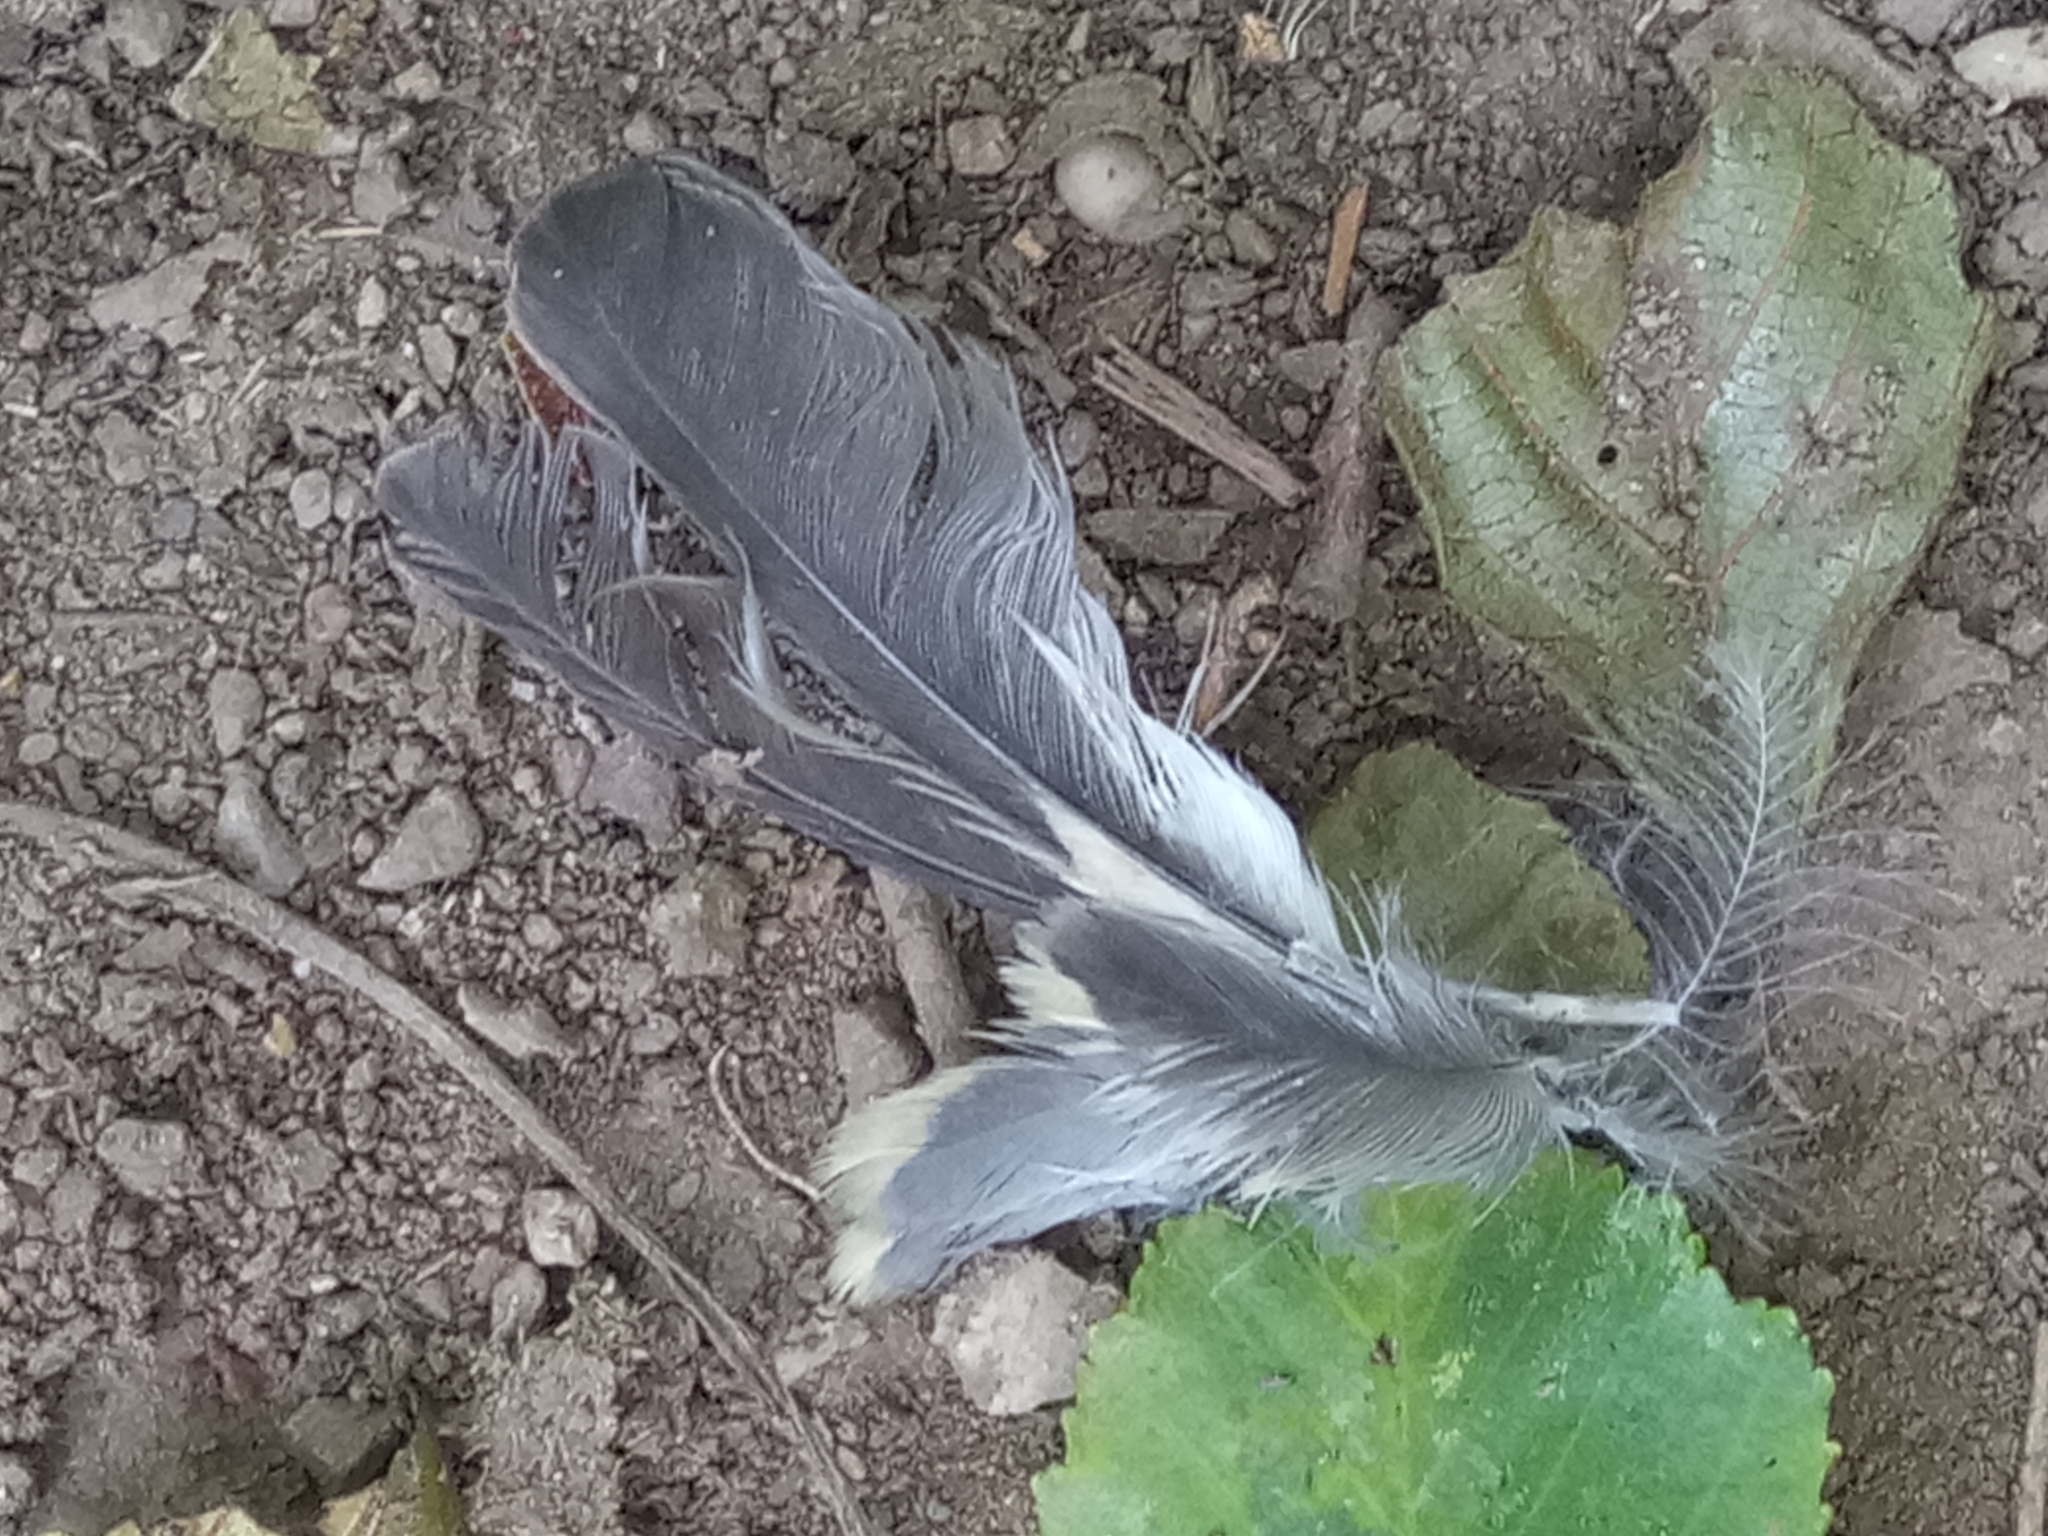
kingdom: Animalia
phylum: Chordata
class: Aves
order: Passeriformes
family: Sylviidae
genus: Curruca
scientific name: Curruca melanocephala
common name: Sardinian warbler
